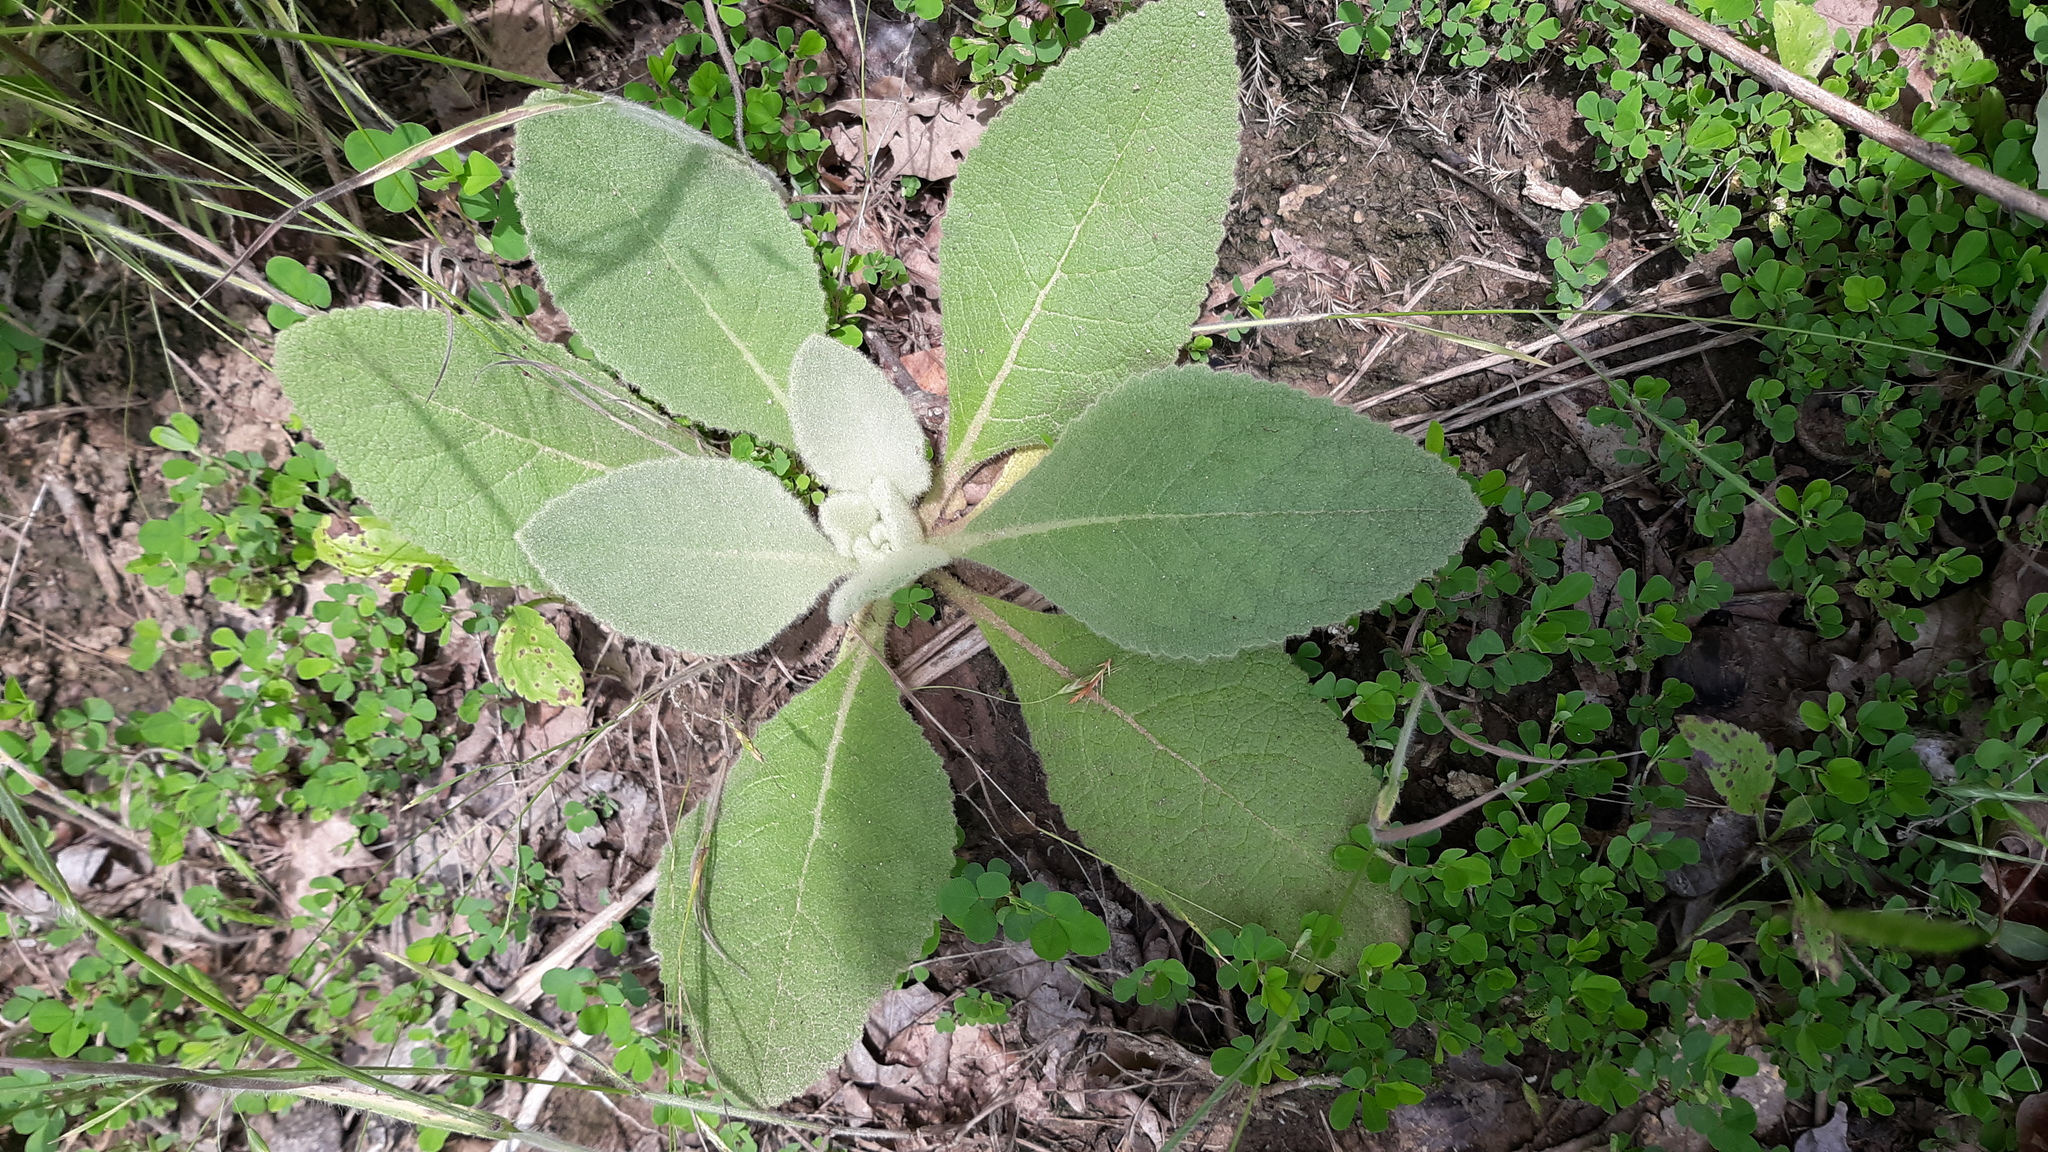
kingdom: Plantae
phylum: Tracheophyta
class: Magnoliopsida
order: Lamiales
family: Scrophulariaceae
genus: Verbascum
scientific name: Verbascum thapsus
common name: Common mullein
